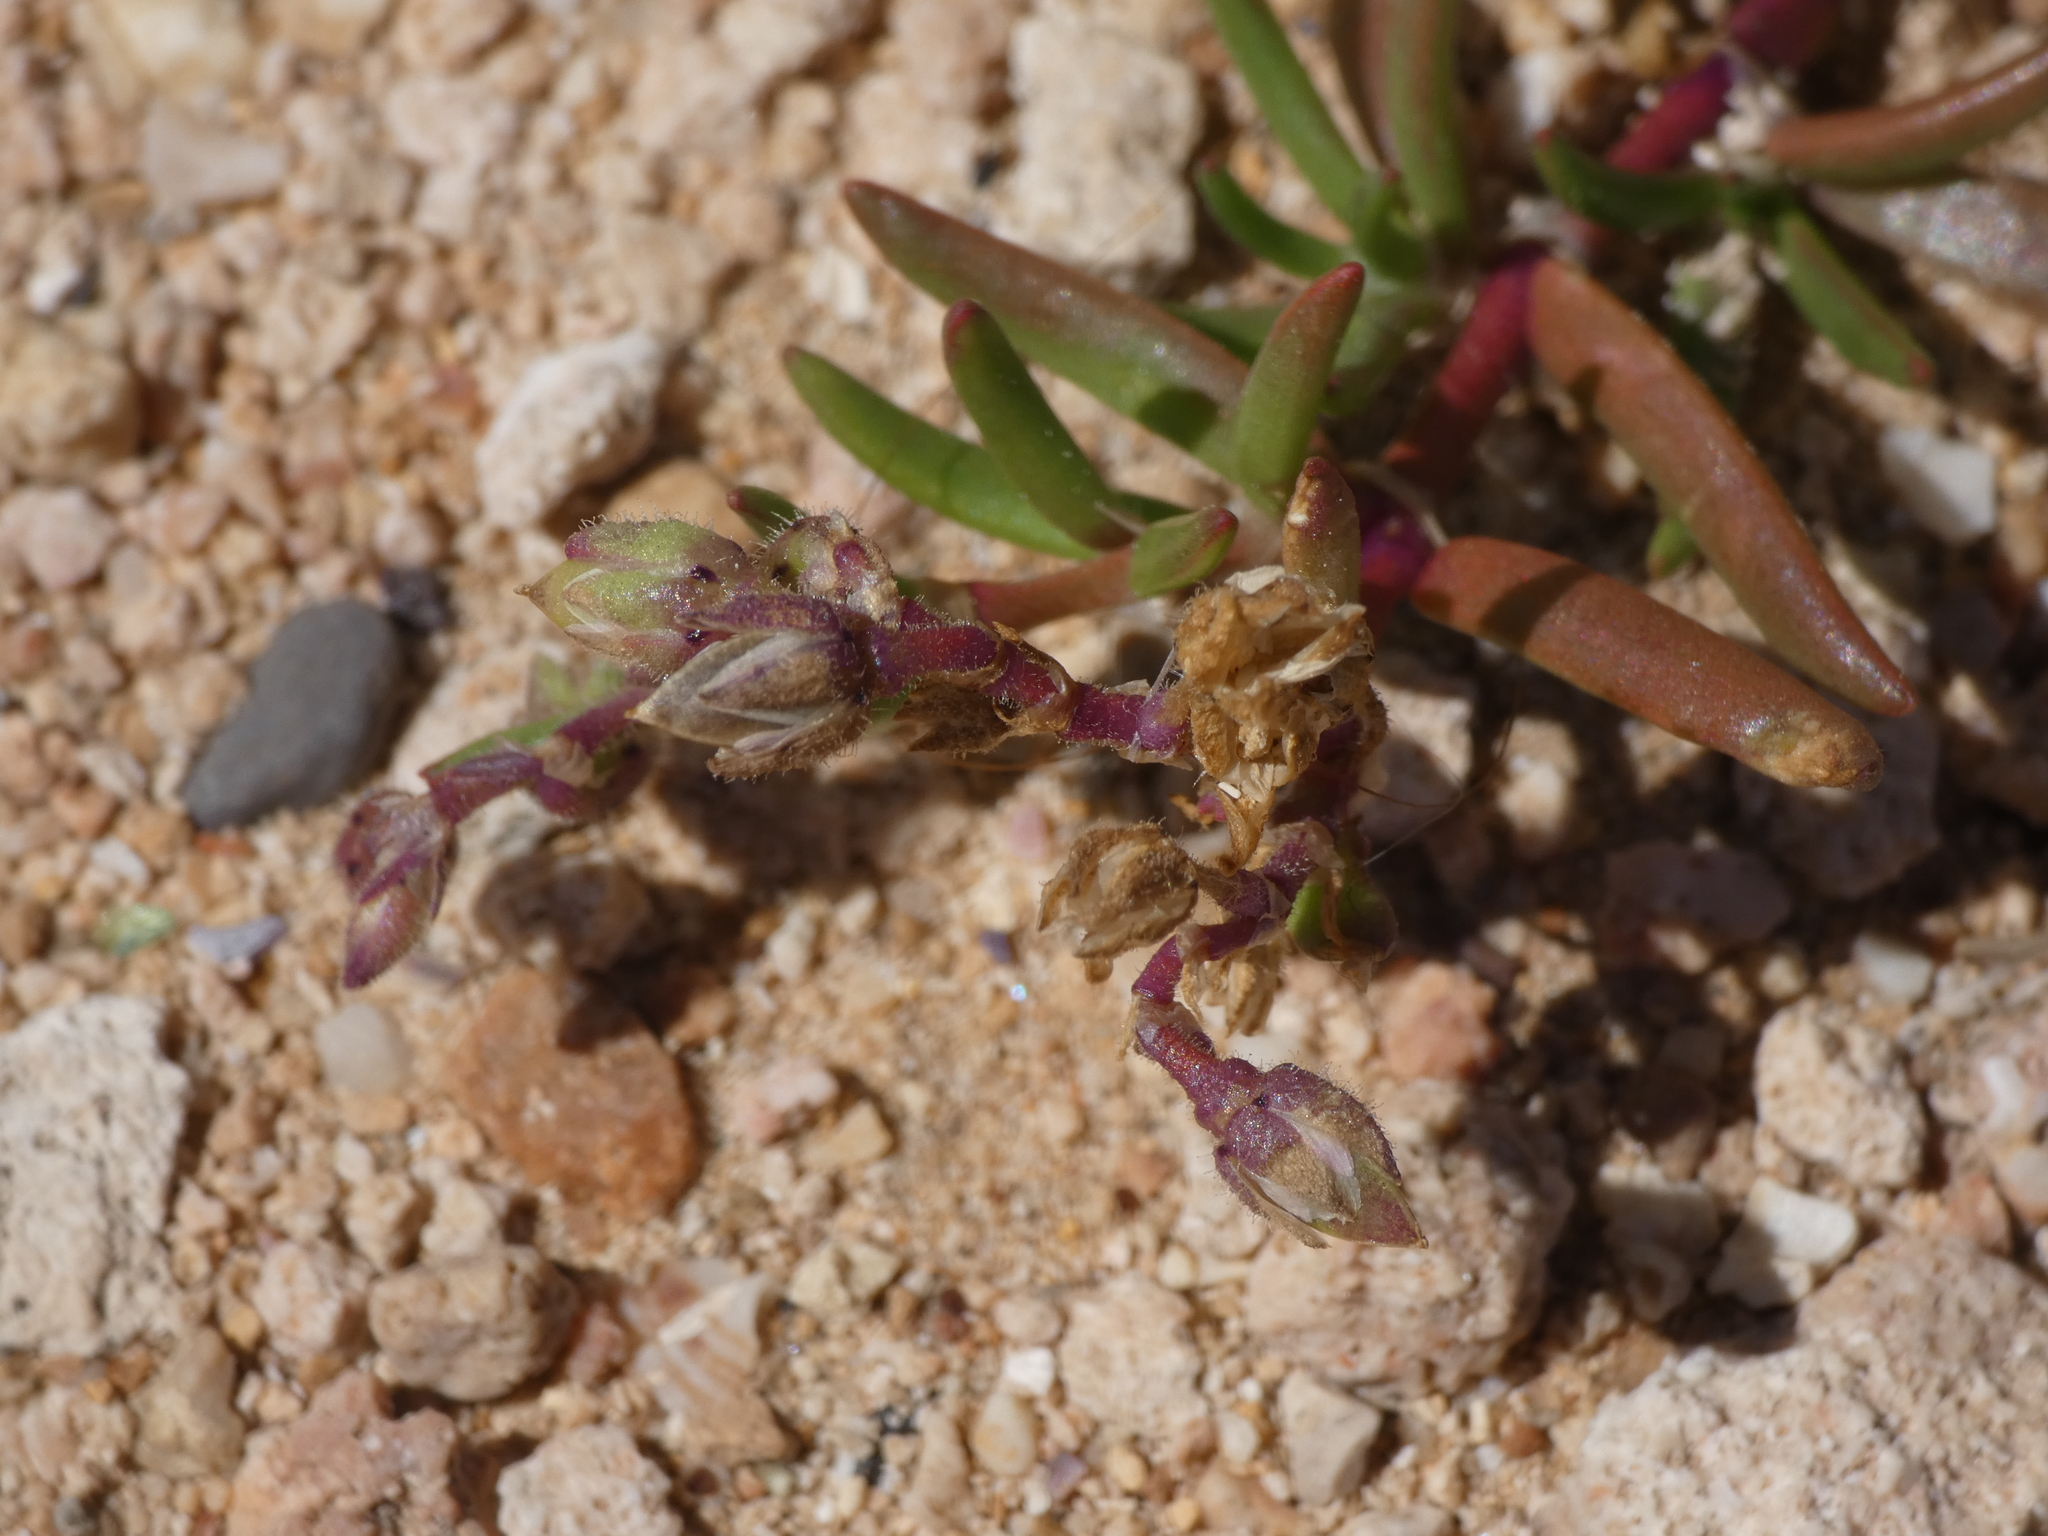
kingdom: Plantae
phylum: Tracheophyta
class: Magnoliopsida
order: Caryophyllales
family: Caryophyllaceae
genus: Spergularia
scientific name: Spergularia marina
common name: Lesser sea-spurrey
